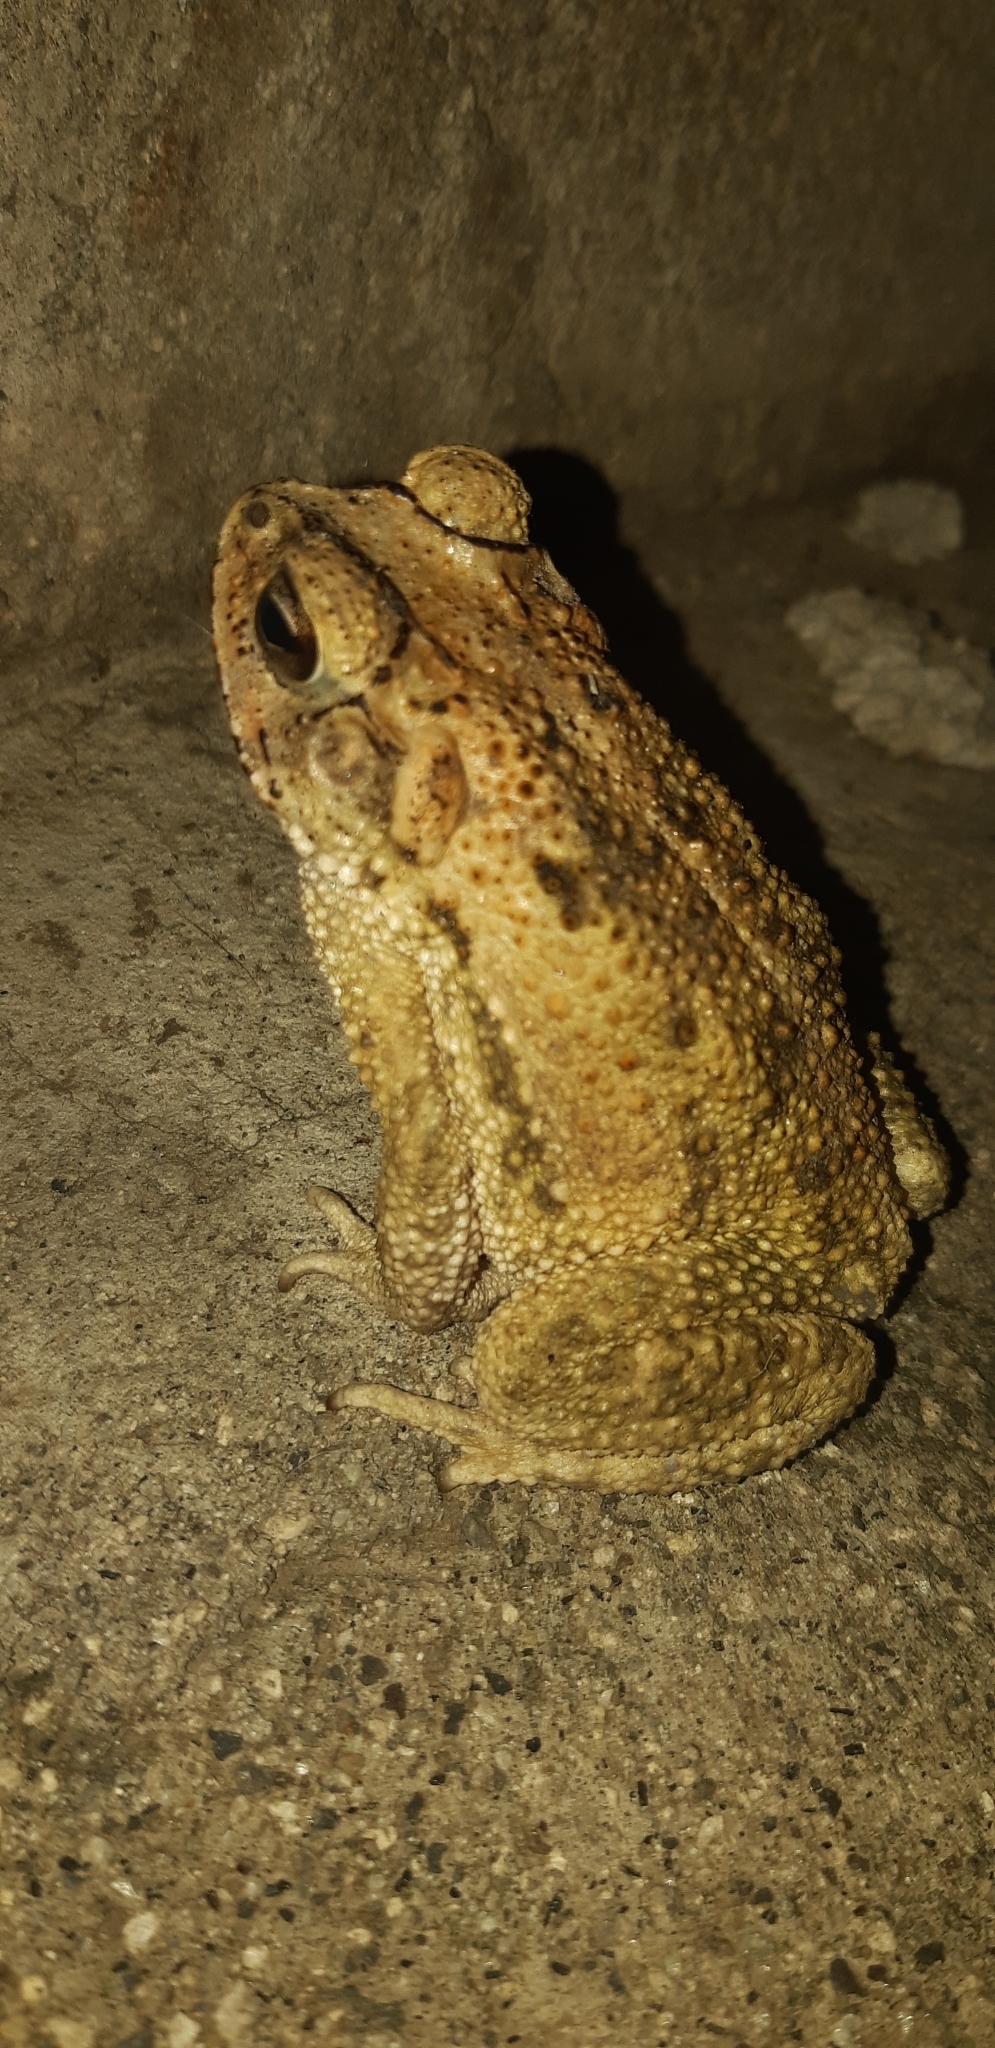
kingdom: Animalia
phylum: Chordata
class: Amphibia
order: Anura
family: Bufonidae
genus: Incilius
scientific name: Incilius luetkenii
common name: Yellow toad
